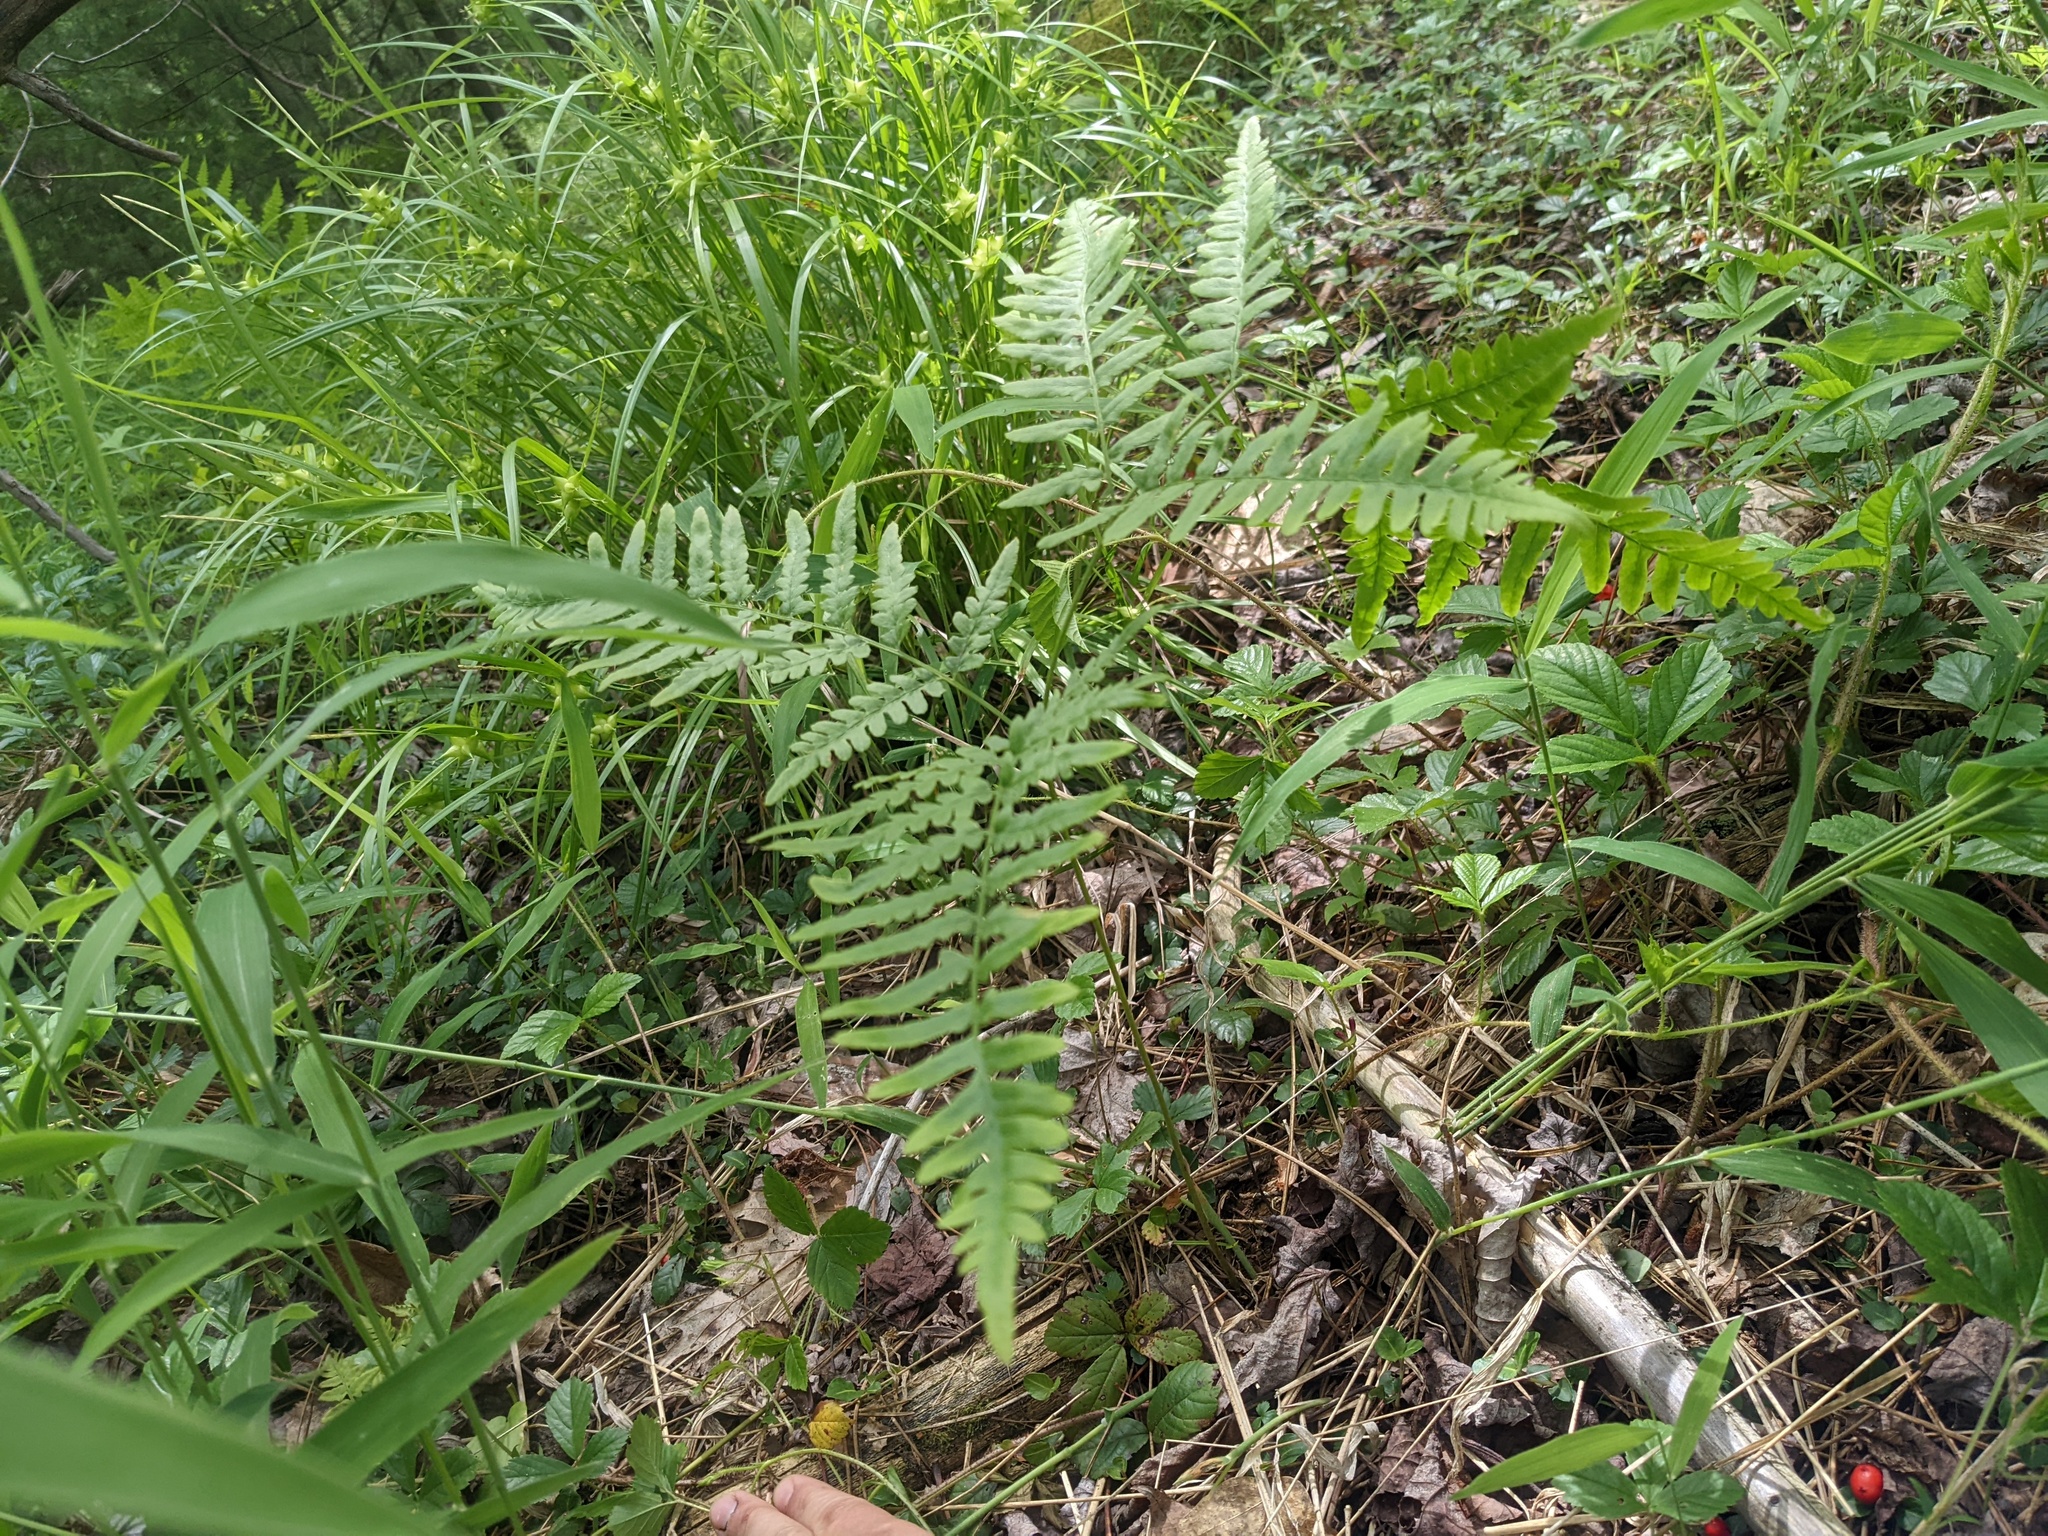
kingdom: Plantae
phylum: Tracheophyta
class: Polypodiopsida
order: Polypodiales
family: Dennstaedtiaceae
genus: Pteridium
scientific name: Pteridium aquilinum
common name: Bracken
